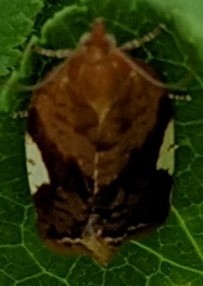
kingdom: Animalia
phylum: Arthropoda
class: Insecta
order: Lepidoptera
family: Tortricidae
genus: Clepsis
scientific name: Clepsis persicana
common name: White triangle tortrix
